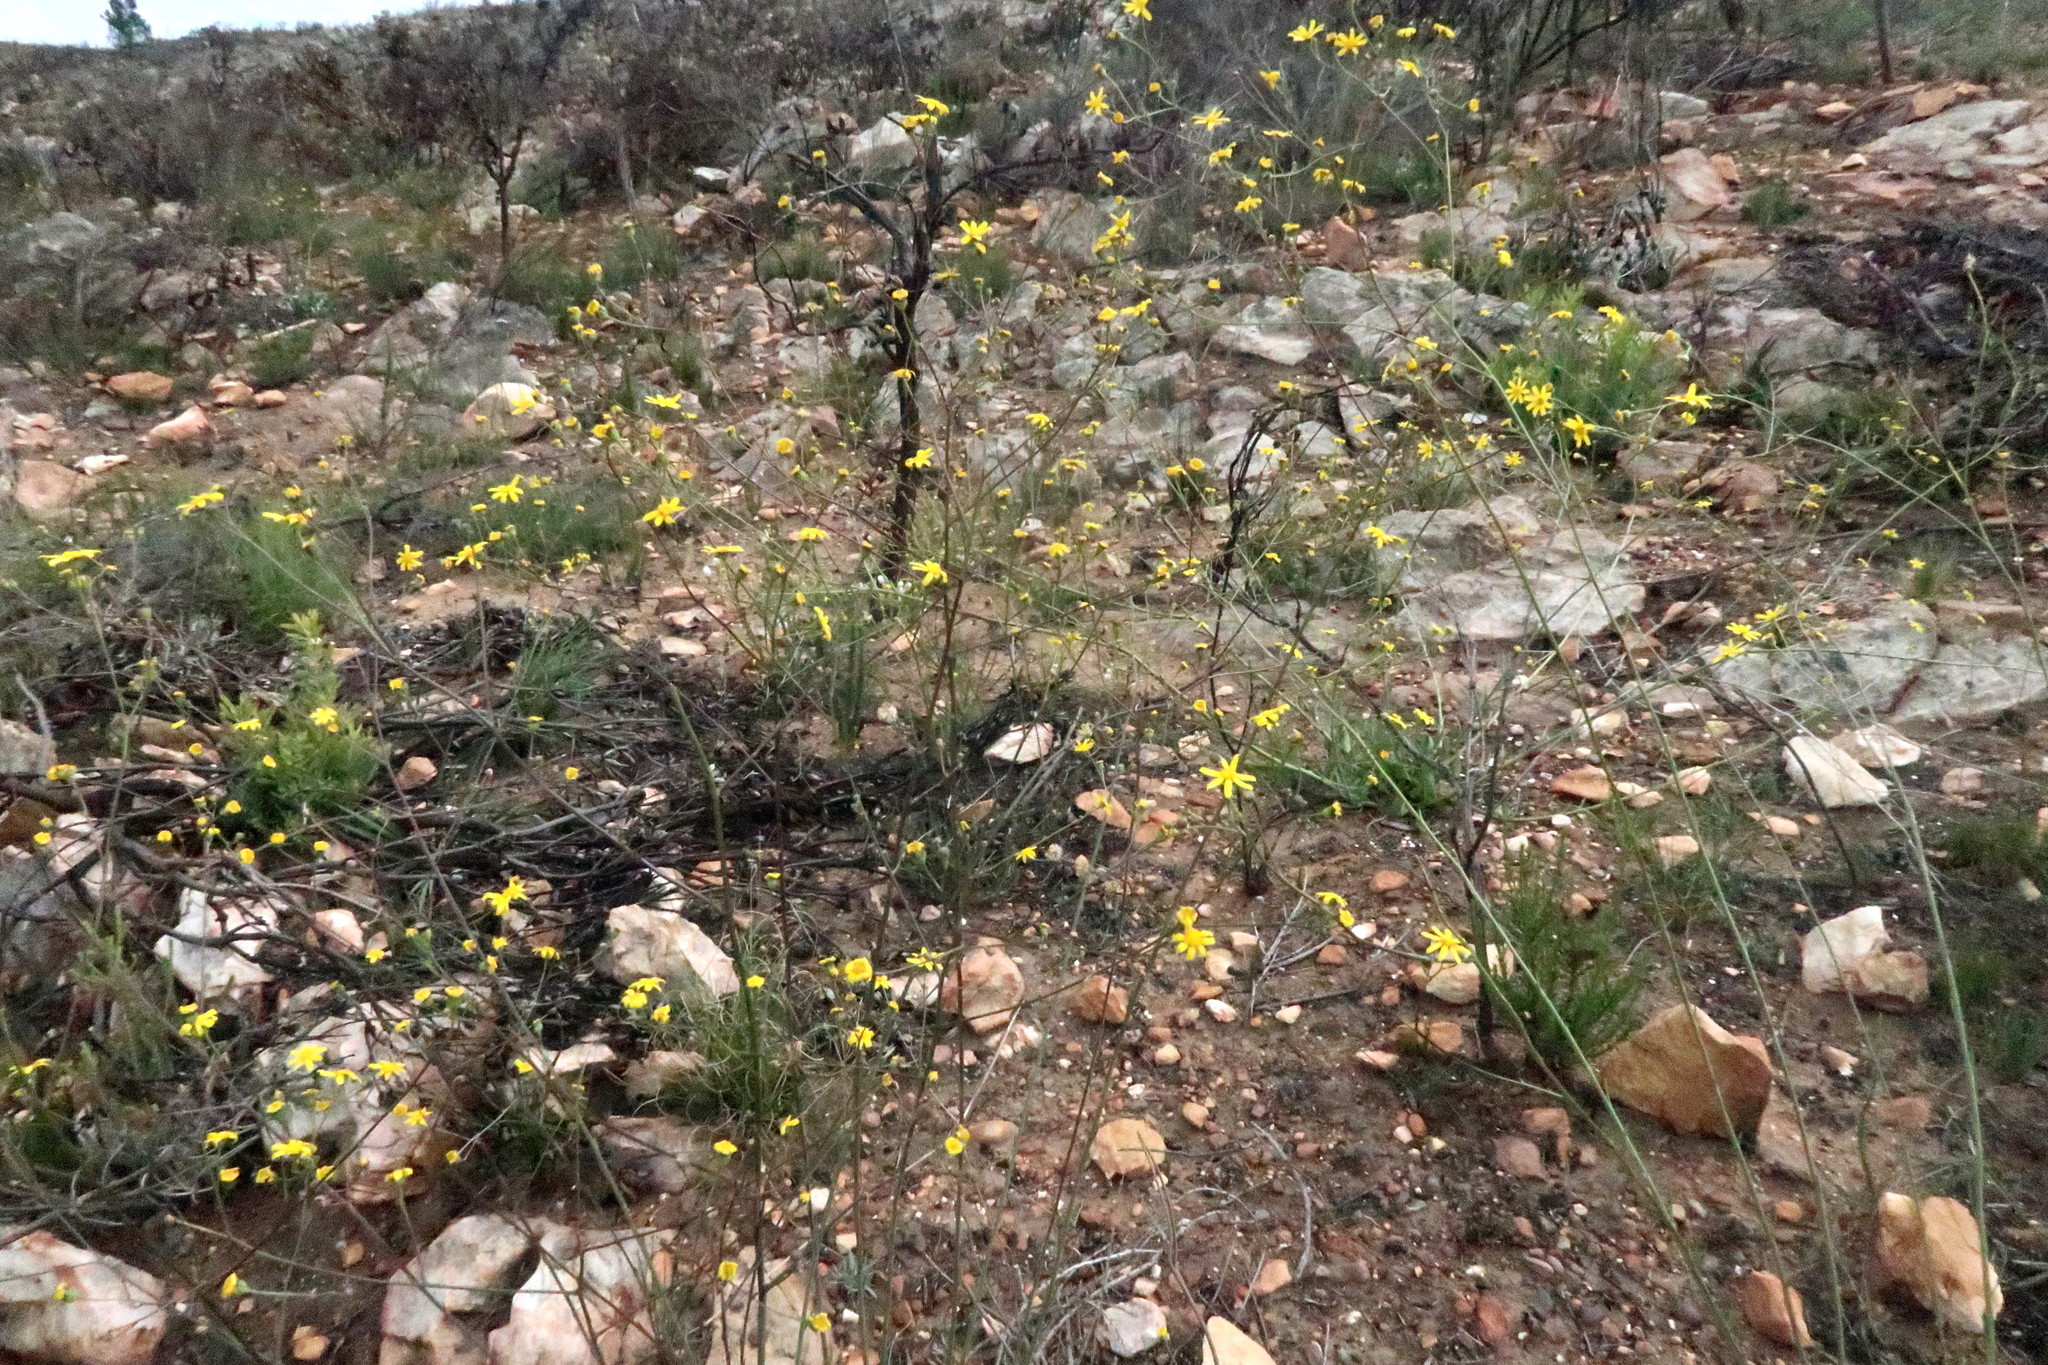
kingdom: Plantae
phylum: Tracheophyta
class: Magnoliopsida
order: Asterales
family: Asteraceae
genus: Othonna
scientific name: Othonna quinquedentata
